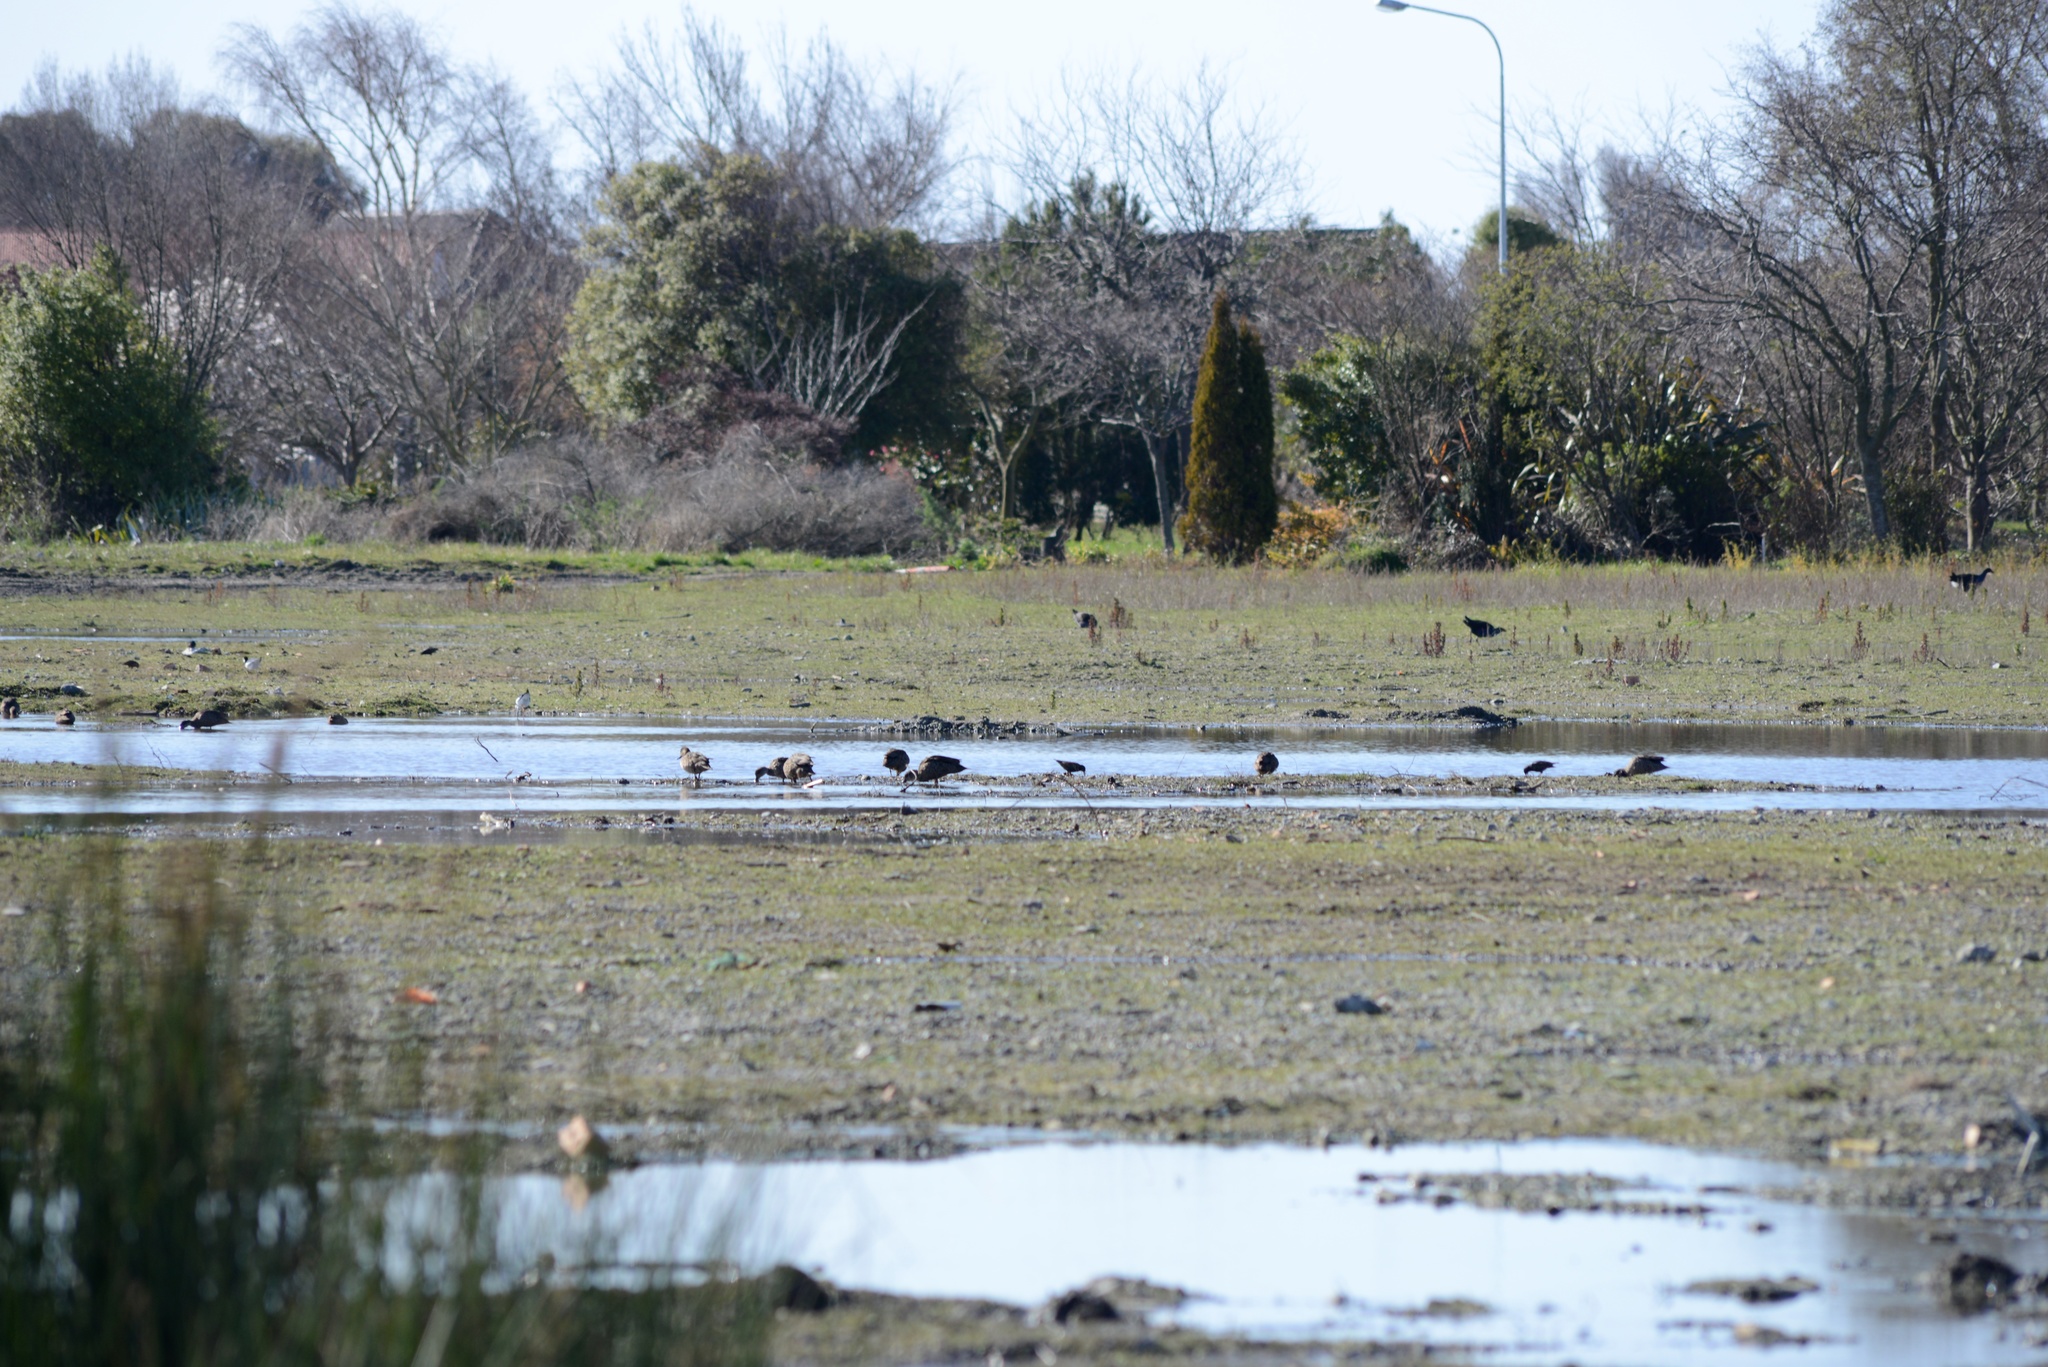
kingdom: Animalia
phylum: Chordata
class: Aves
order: Anseriformes
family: Anatidae
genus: Anas
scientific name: Anas gracilis
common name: Grey teal
